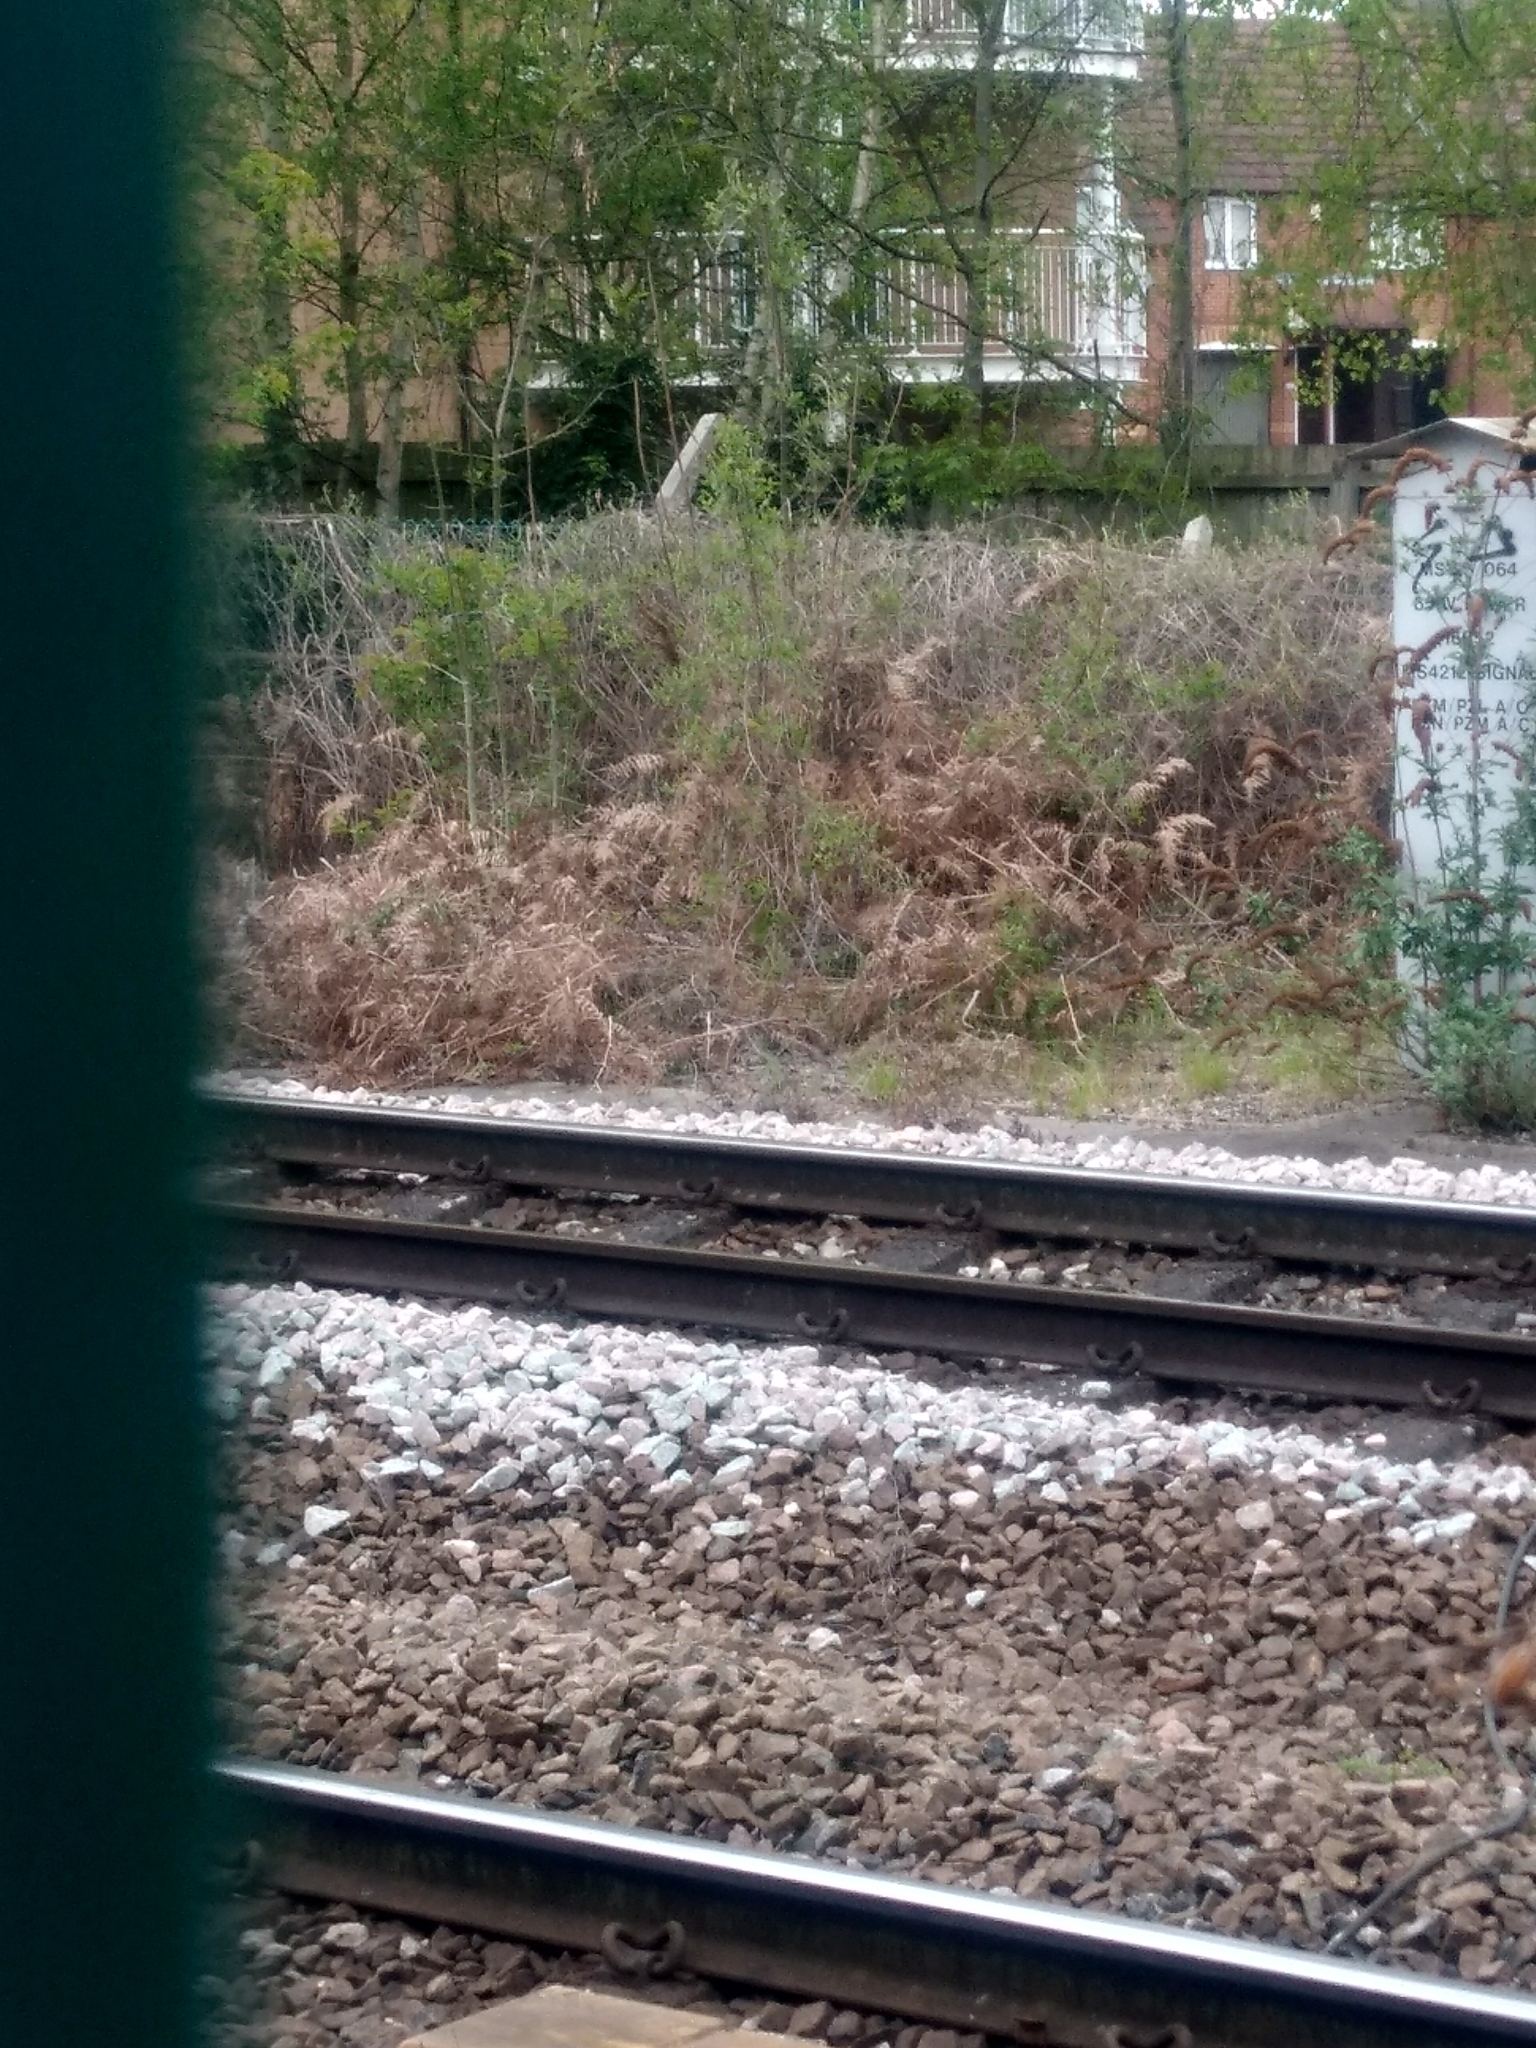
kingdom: Plantae
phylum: Tracheophyta
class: Polypodiopsida
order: Polypodiales
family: Dennstaedtiaceae
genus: Pteridium
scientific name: Pteridium aquilinum
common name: Bracken
